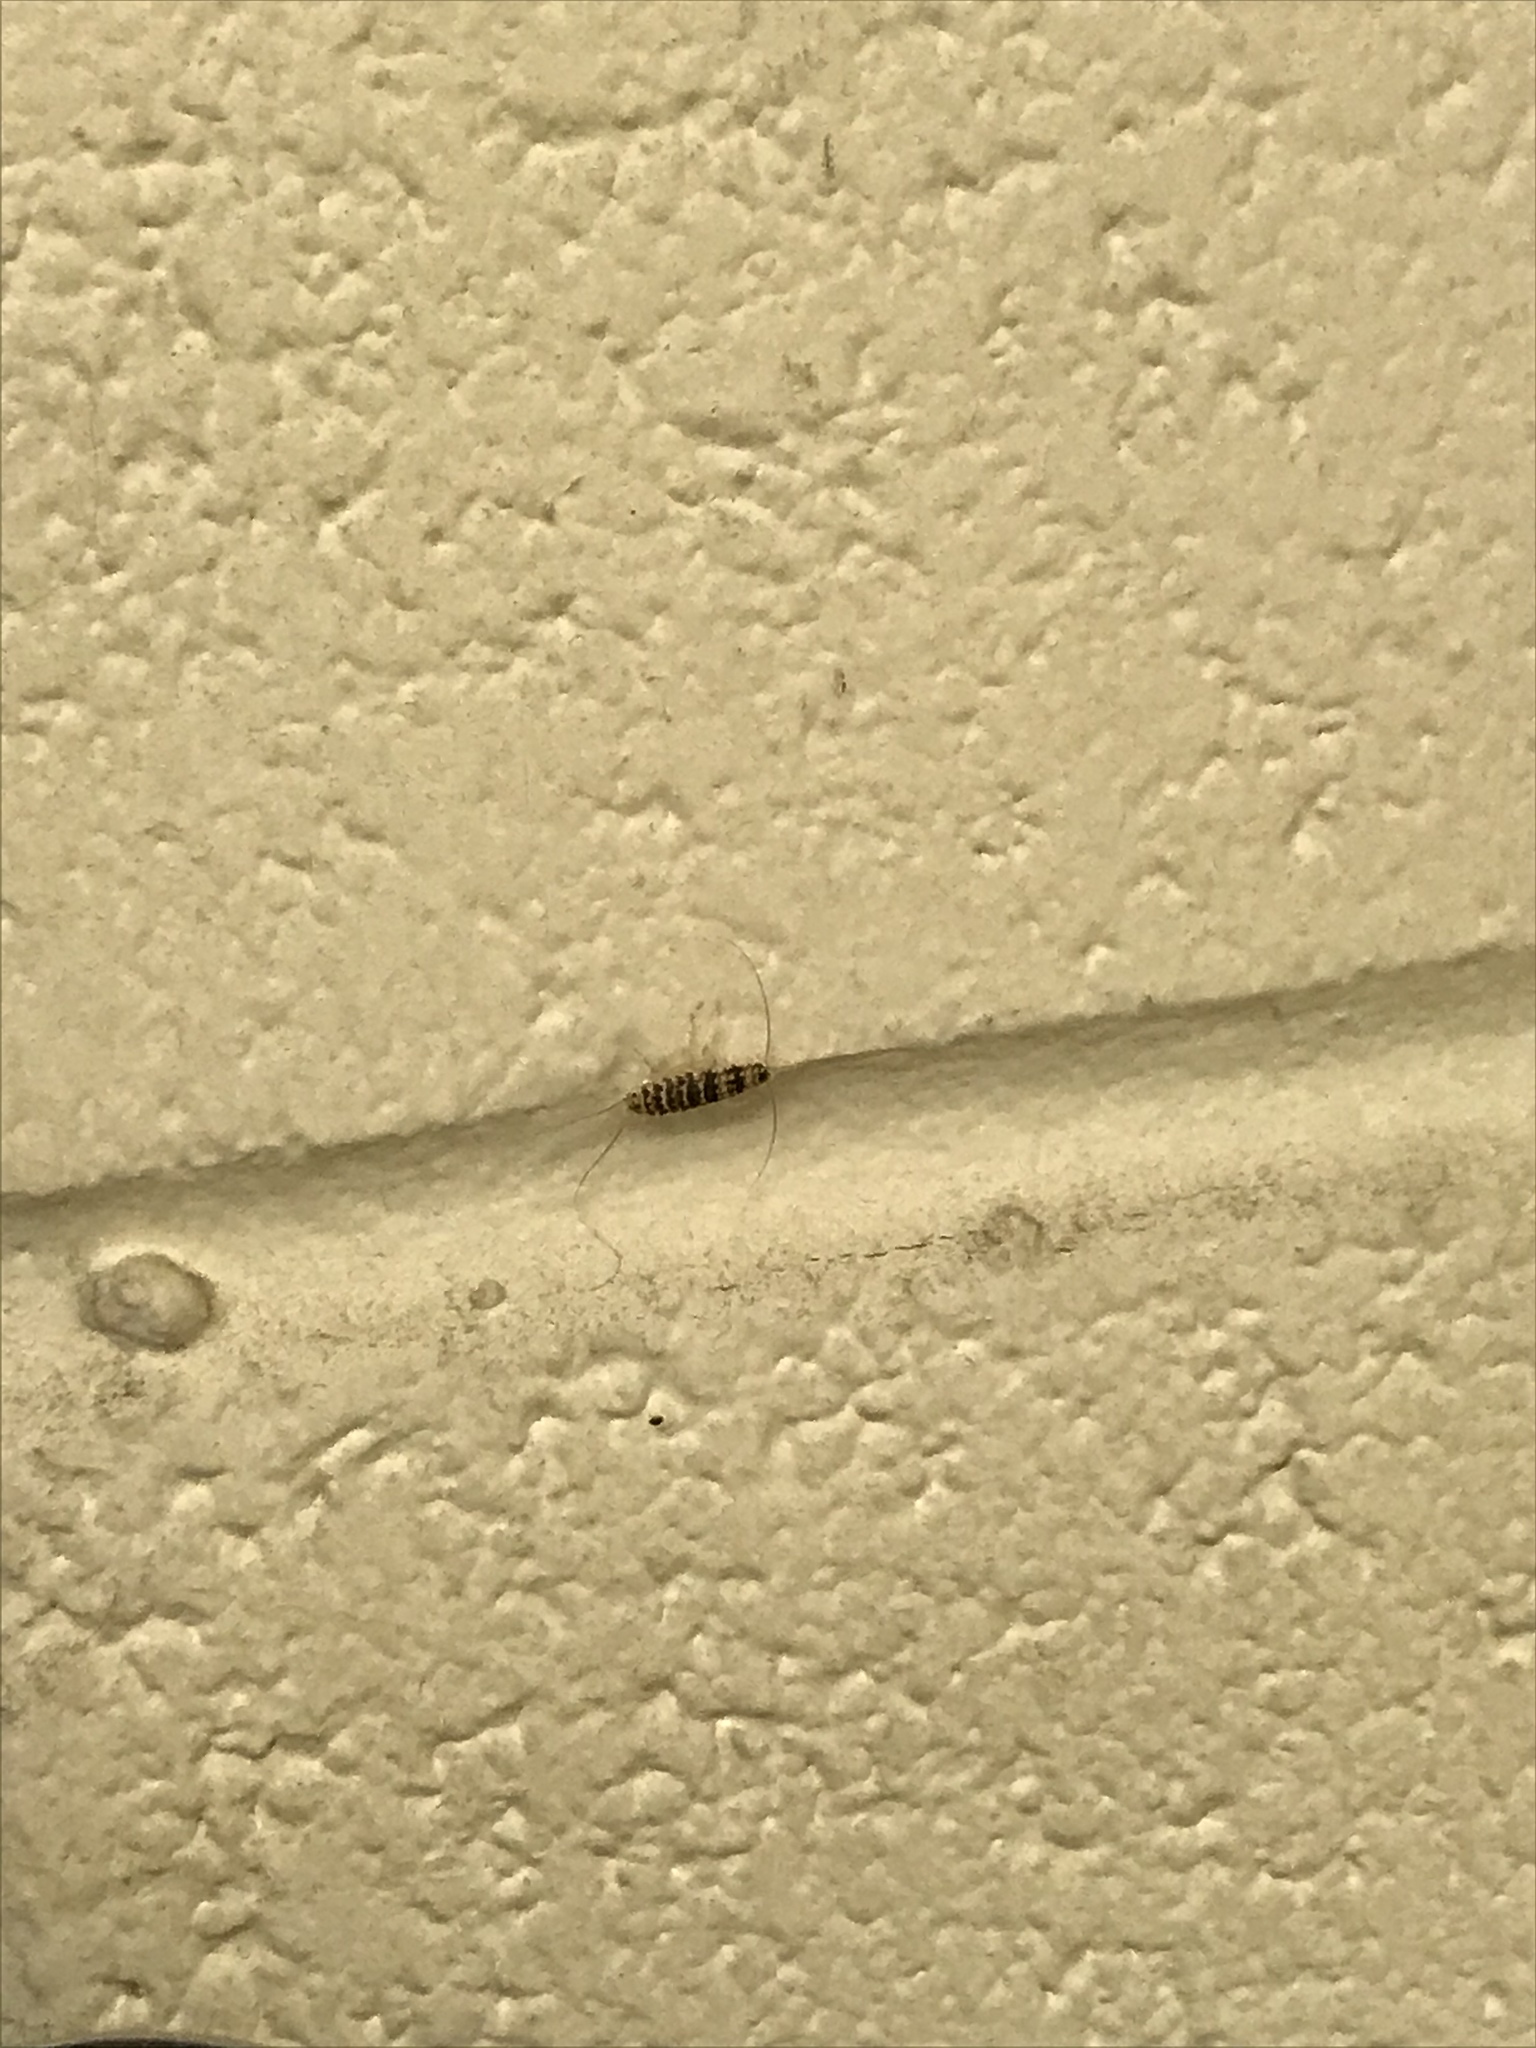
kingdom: Animalia
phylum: Arthropoda
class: Insecta
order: Zygentoma
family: Lepismatidae
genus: Thermobia
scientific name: Thermobia domestica
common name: Firebrat
